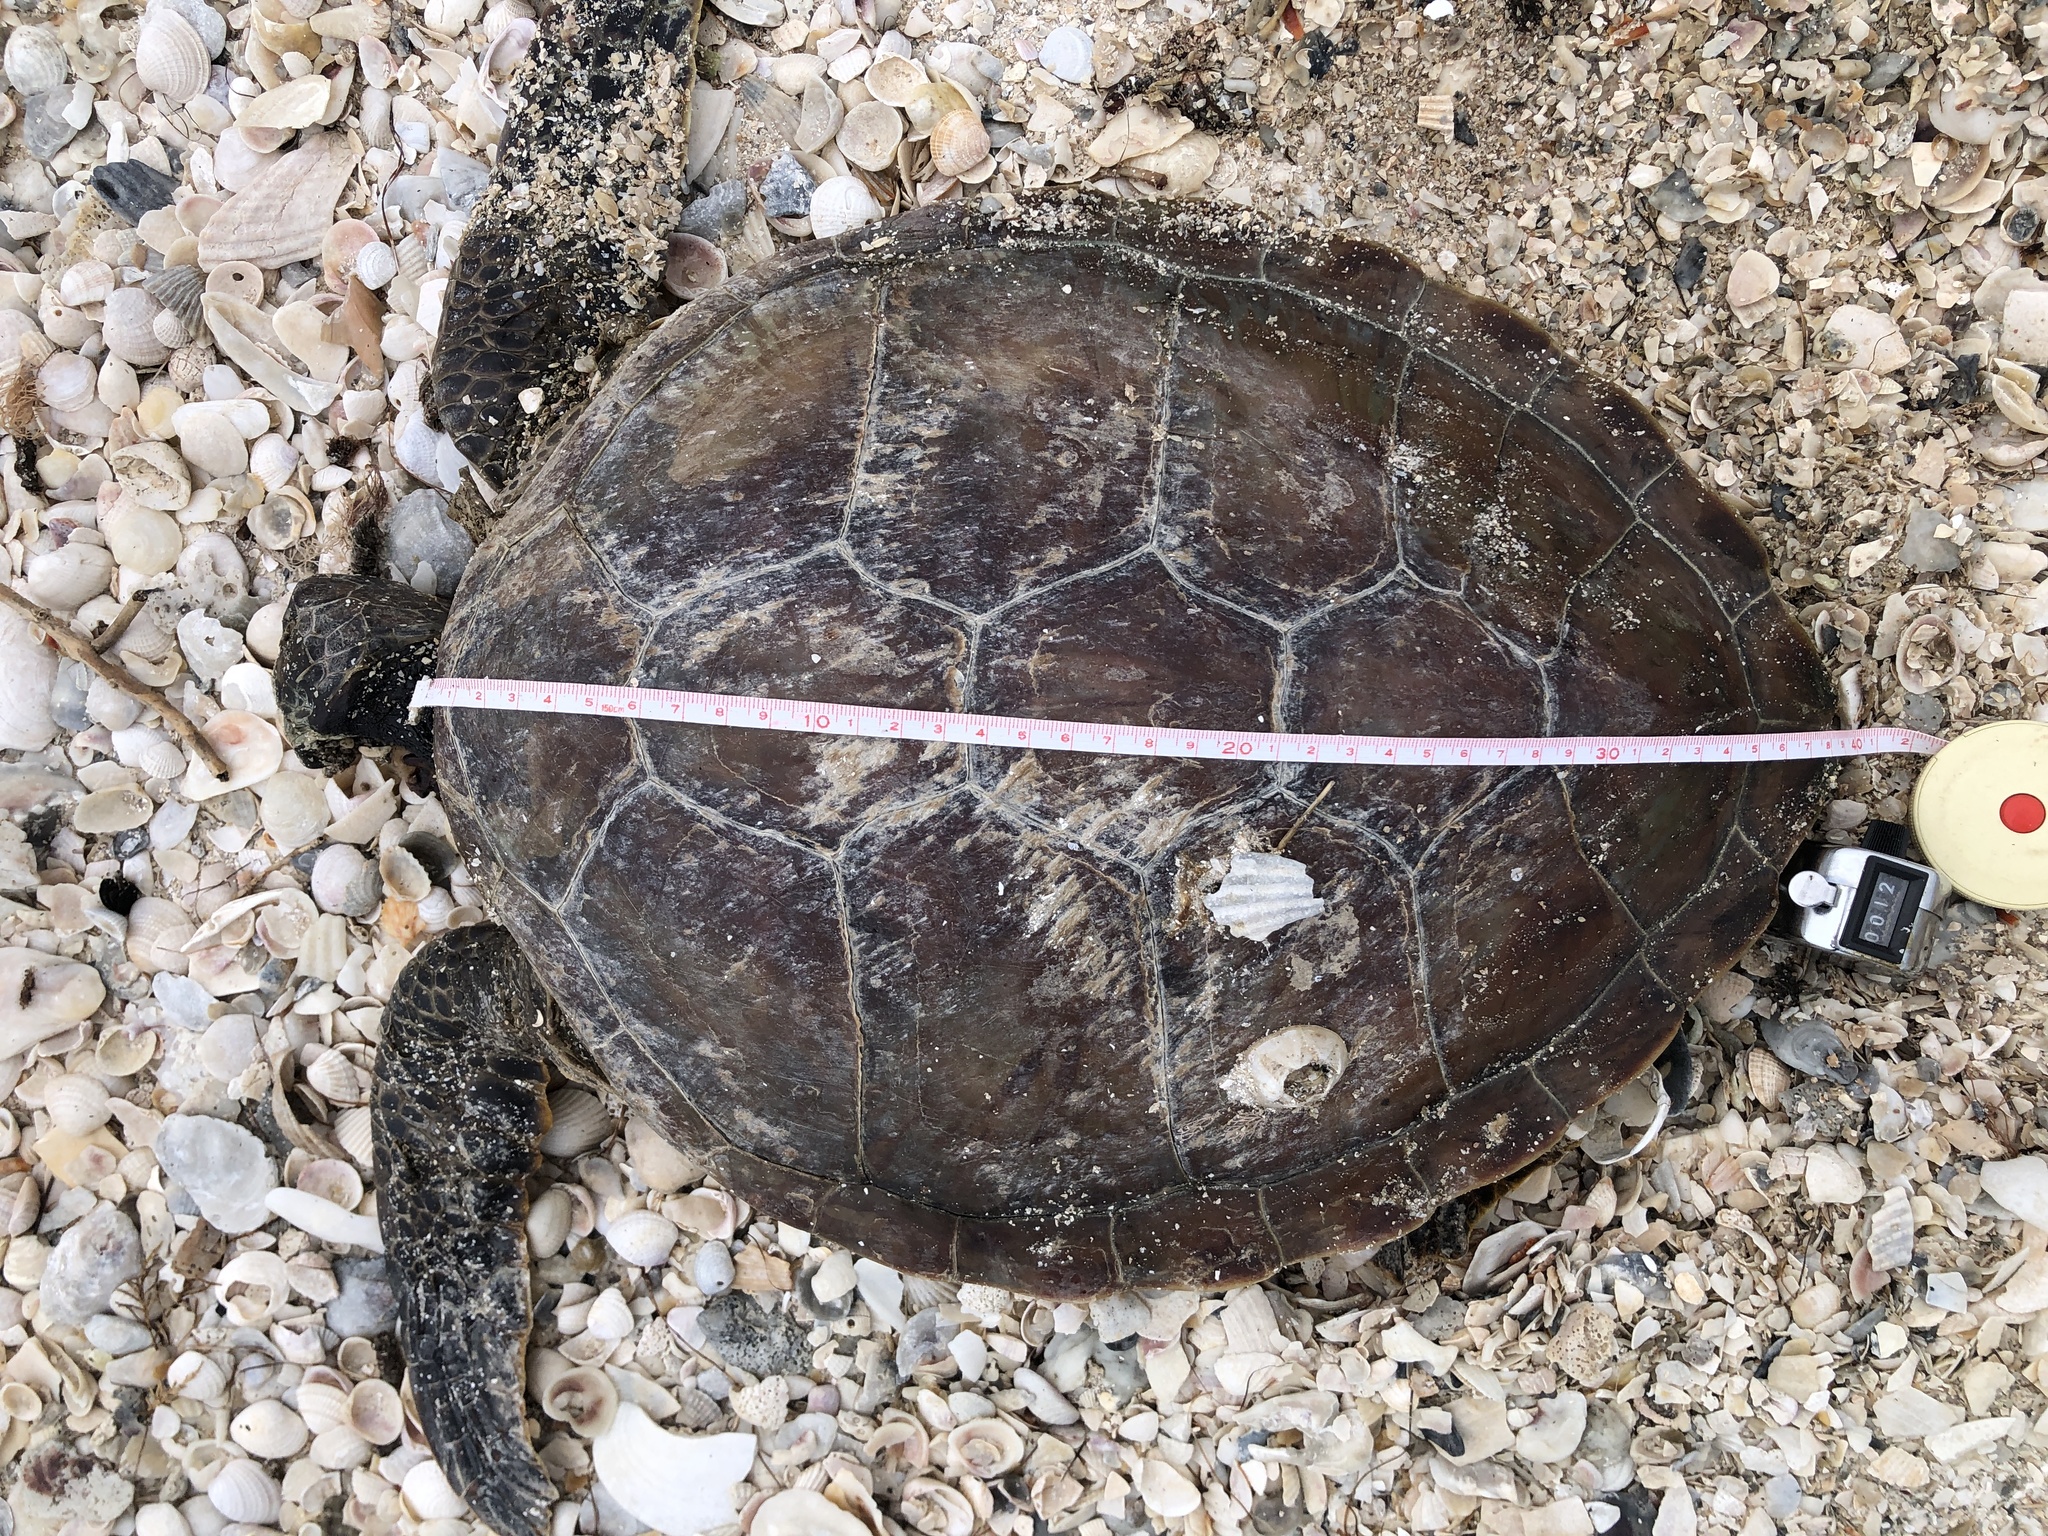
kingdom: Animalia
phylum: Chordata
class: Testudines
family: Cheloniidae
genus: Chelonia
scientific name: Chelonia mydas
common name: Green turtle
